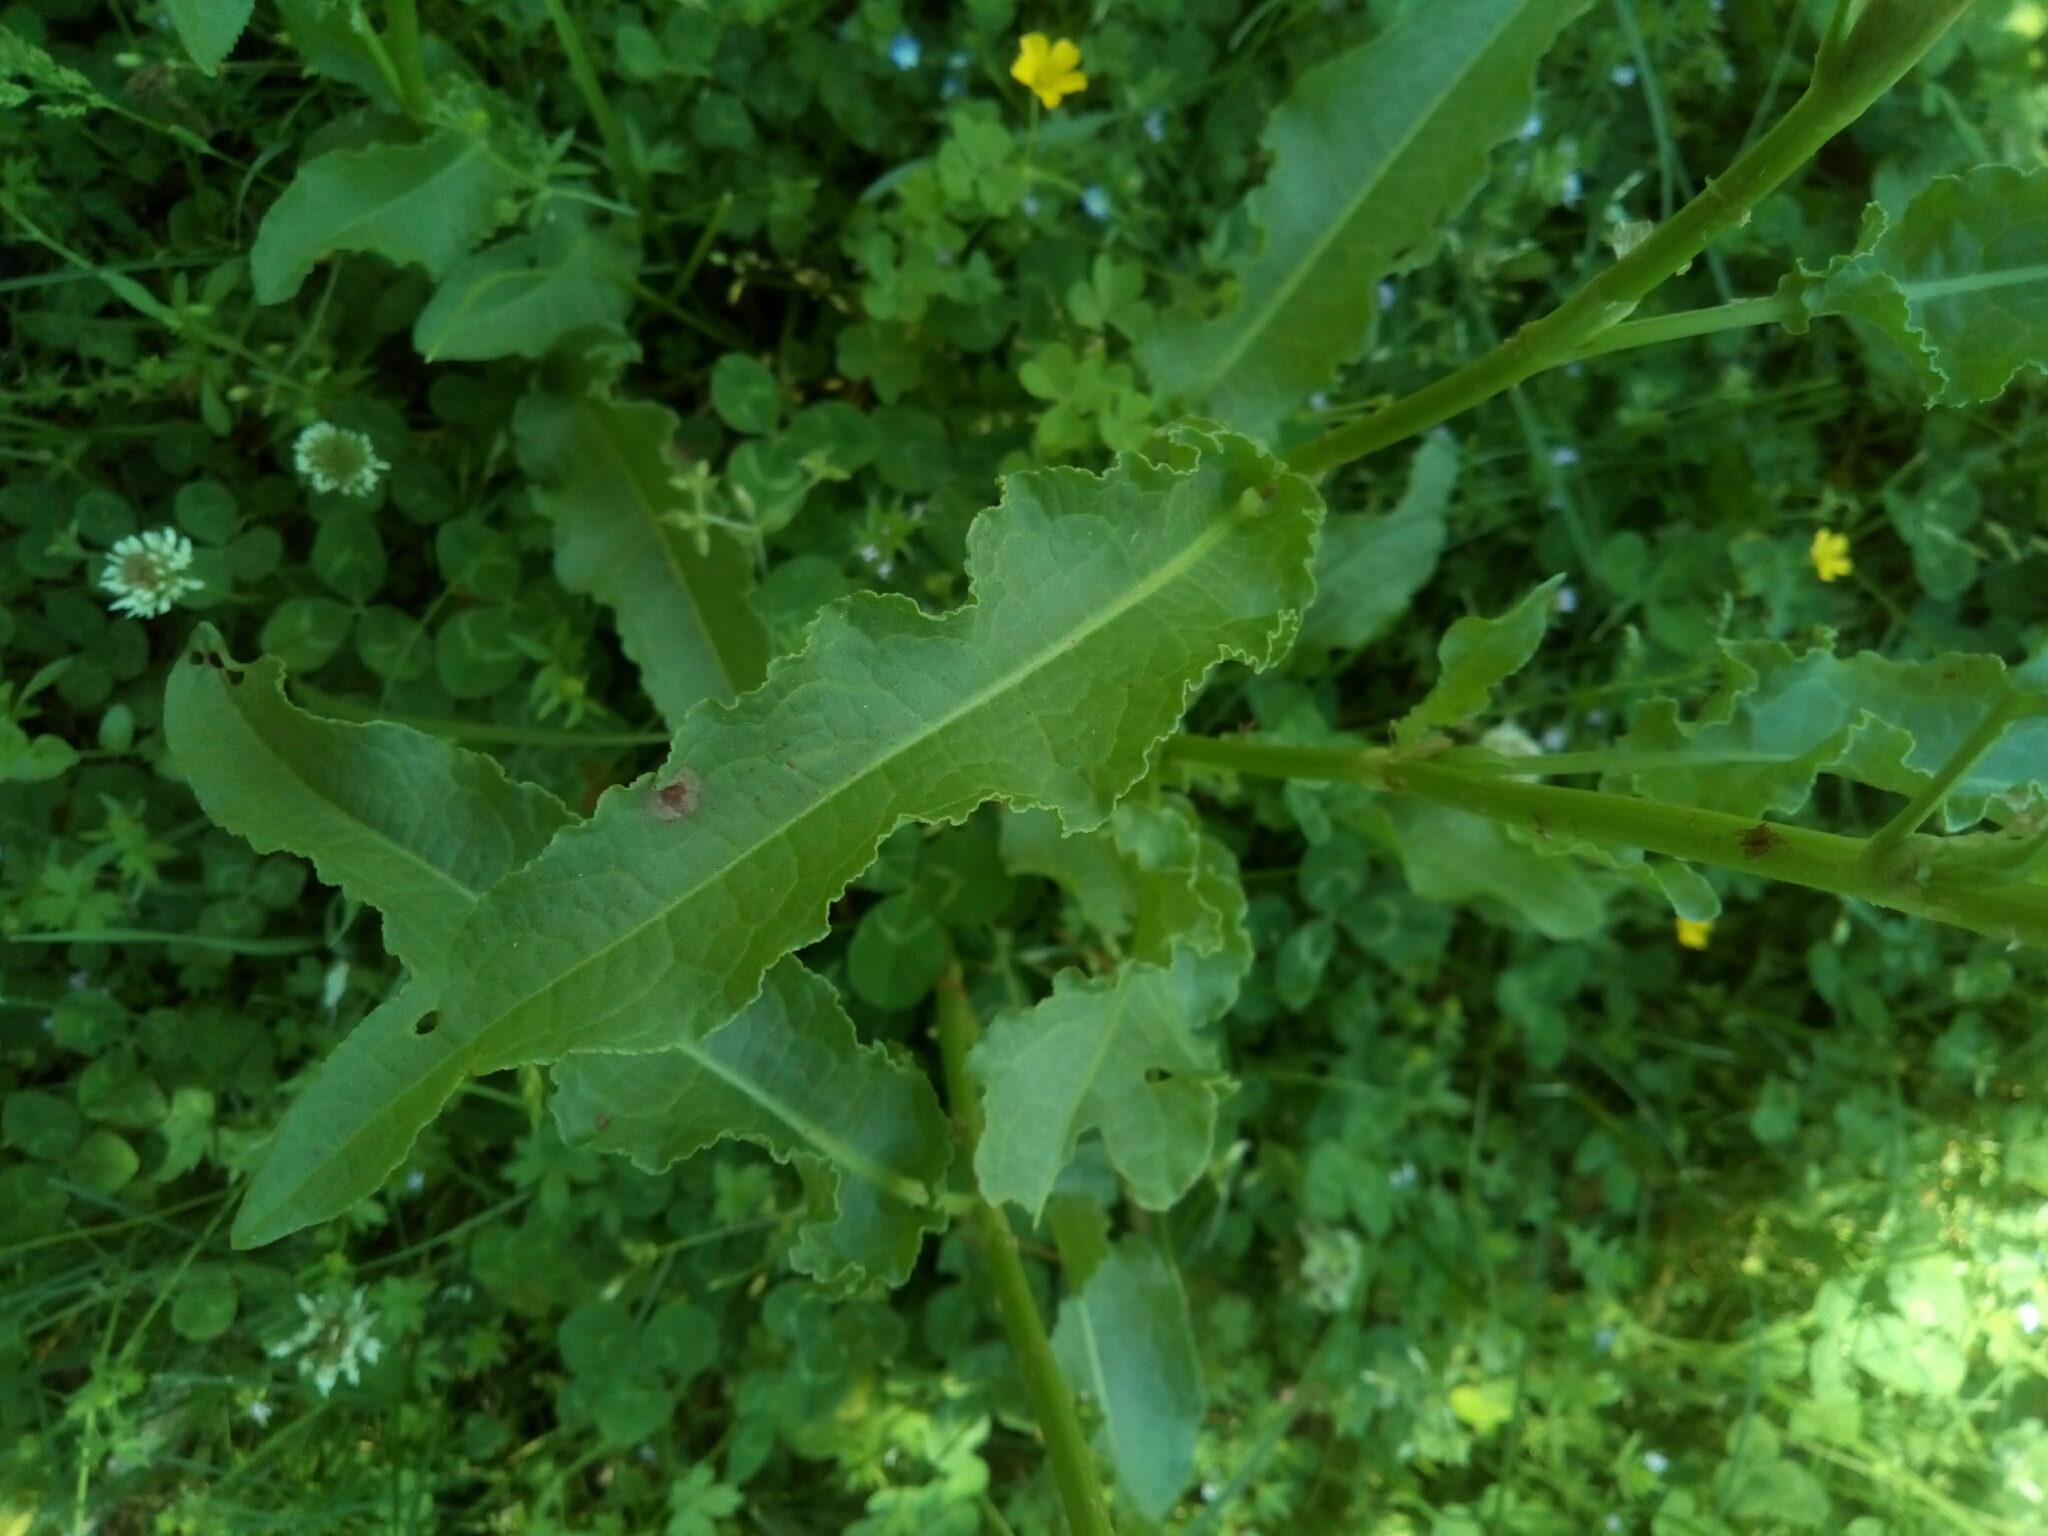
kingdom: Plantae
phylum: Tracheophyta
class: Magnoliopsida
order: Caryophyllales
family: Polygonaceae
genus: Rumex
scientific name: Rumex crispus
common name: Curled dock
